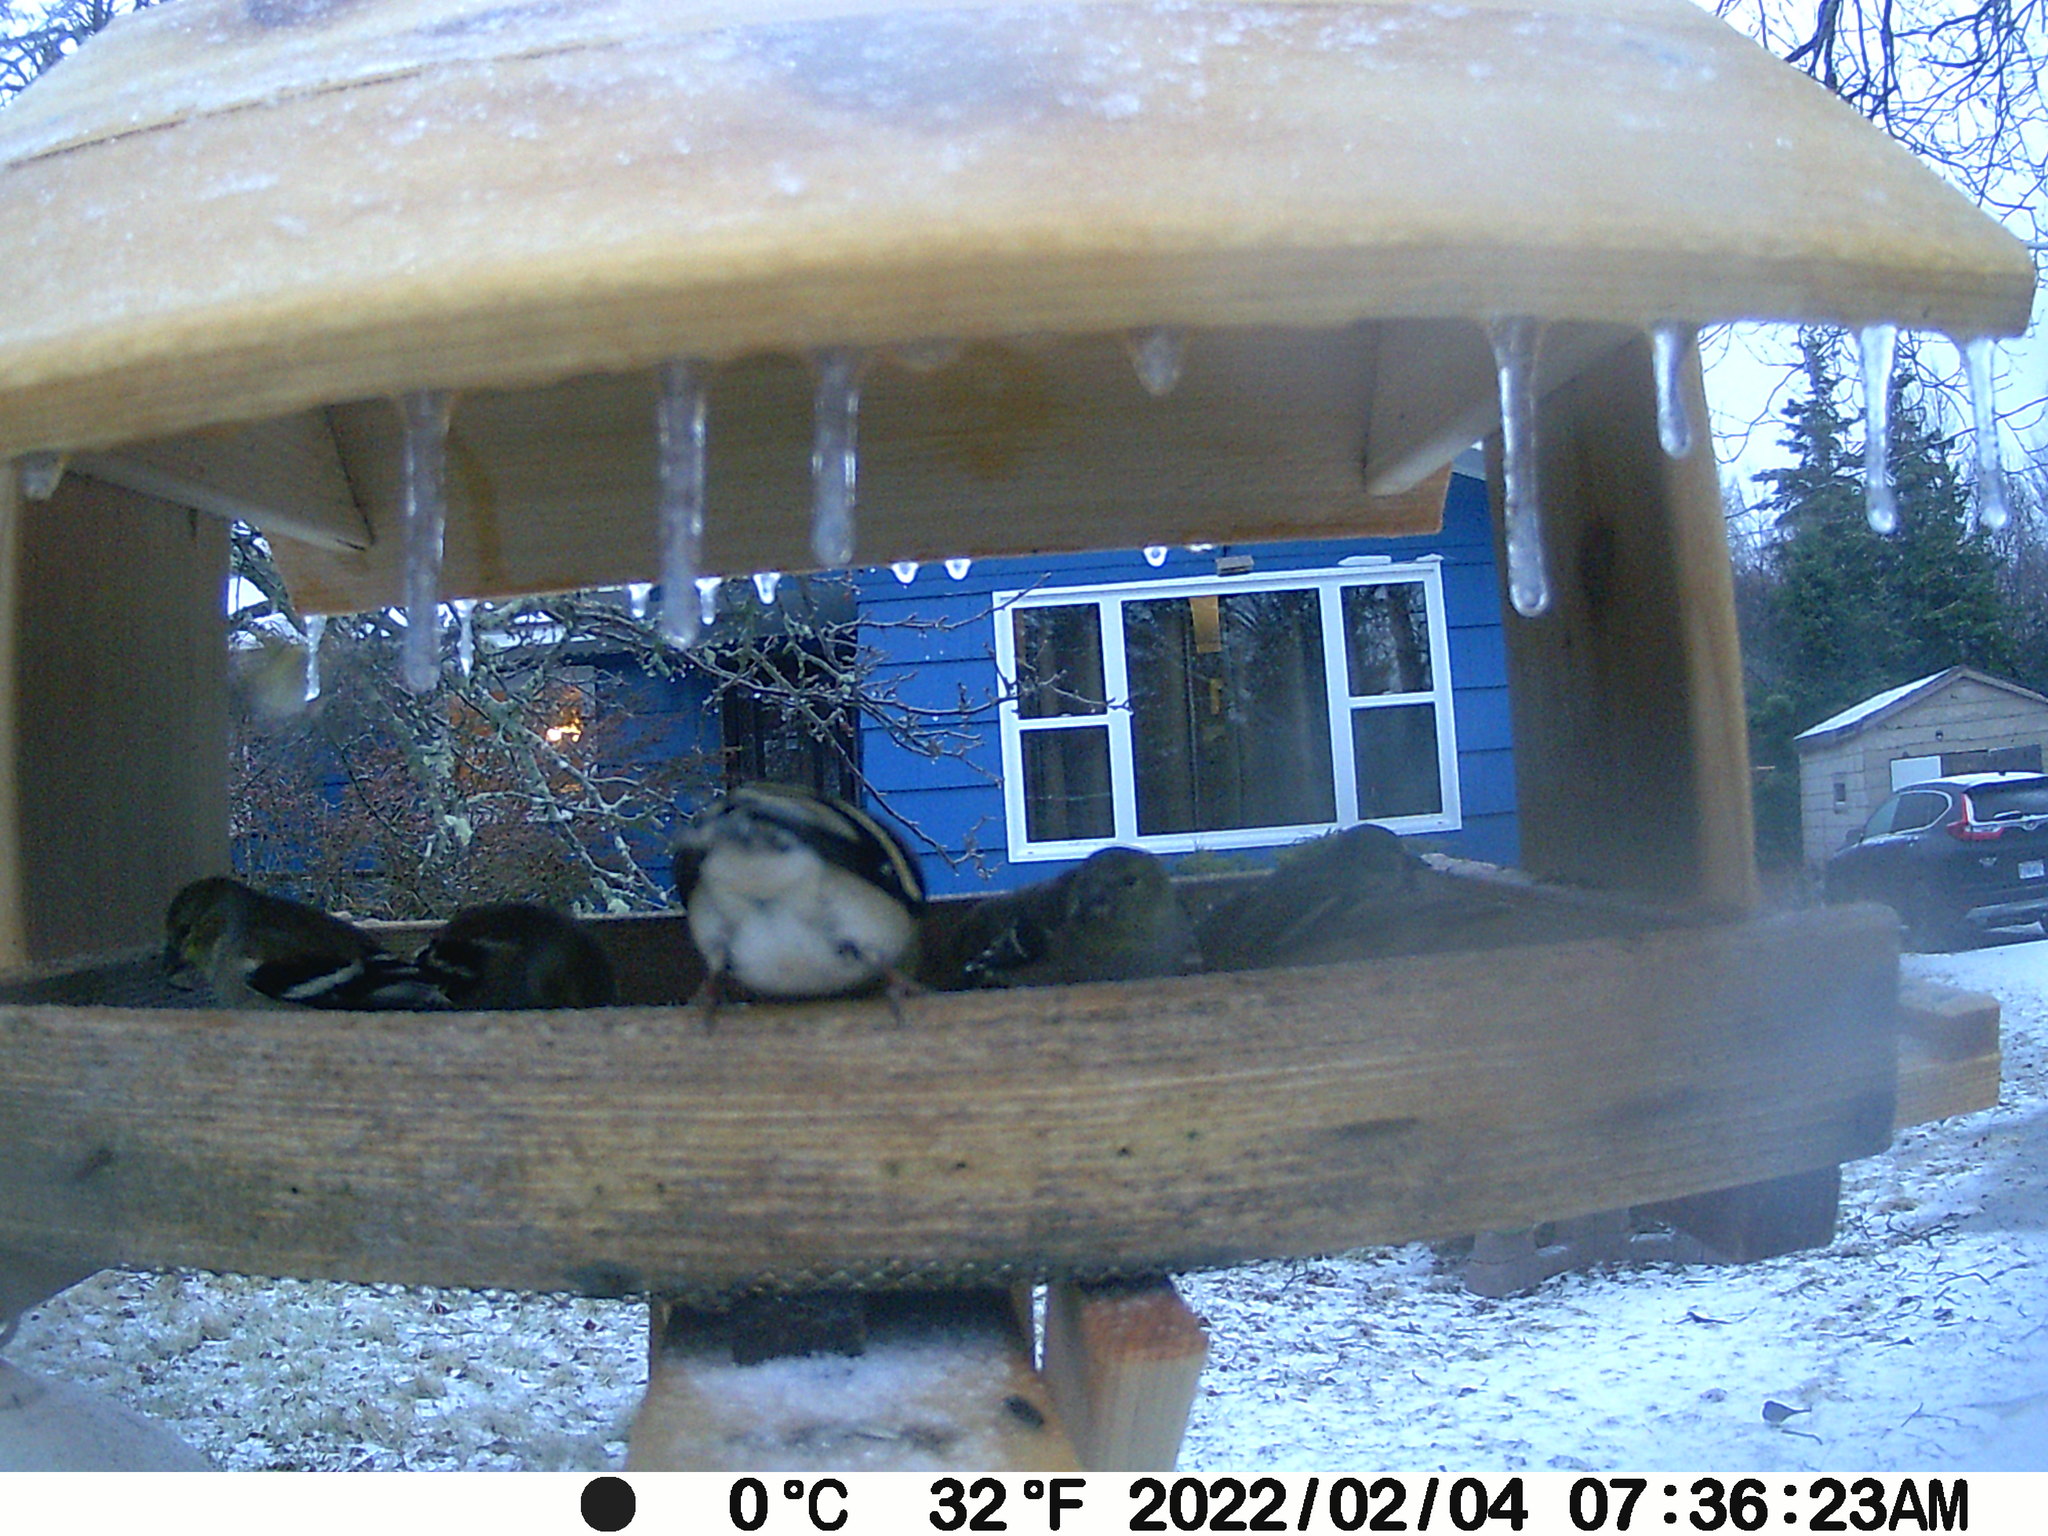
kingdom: Animalia
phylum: Chordata
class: Aves
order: Passeriformes
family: Passerellidae
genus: Junco
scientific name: Junco hyemalis
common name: Dark-eyed junco
